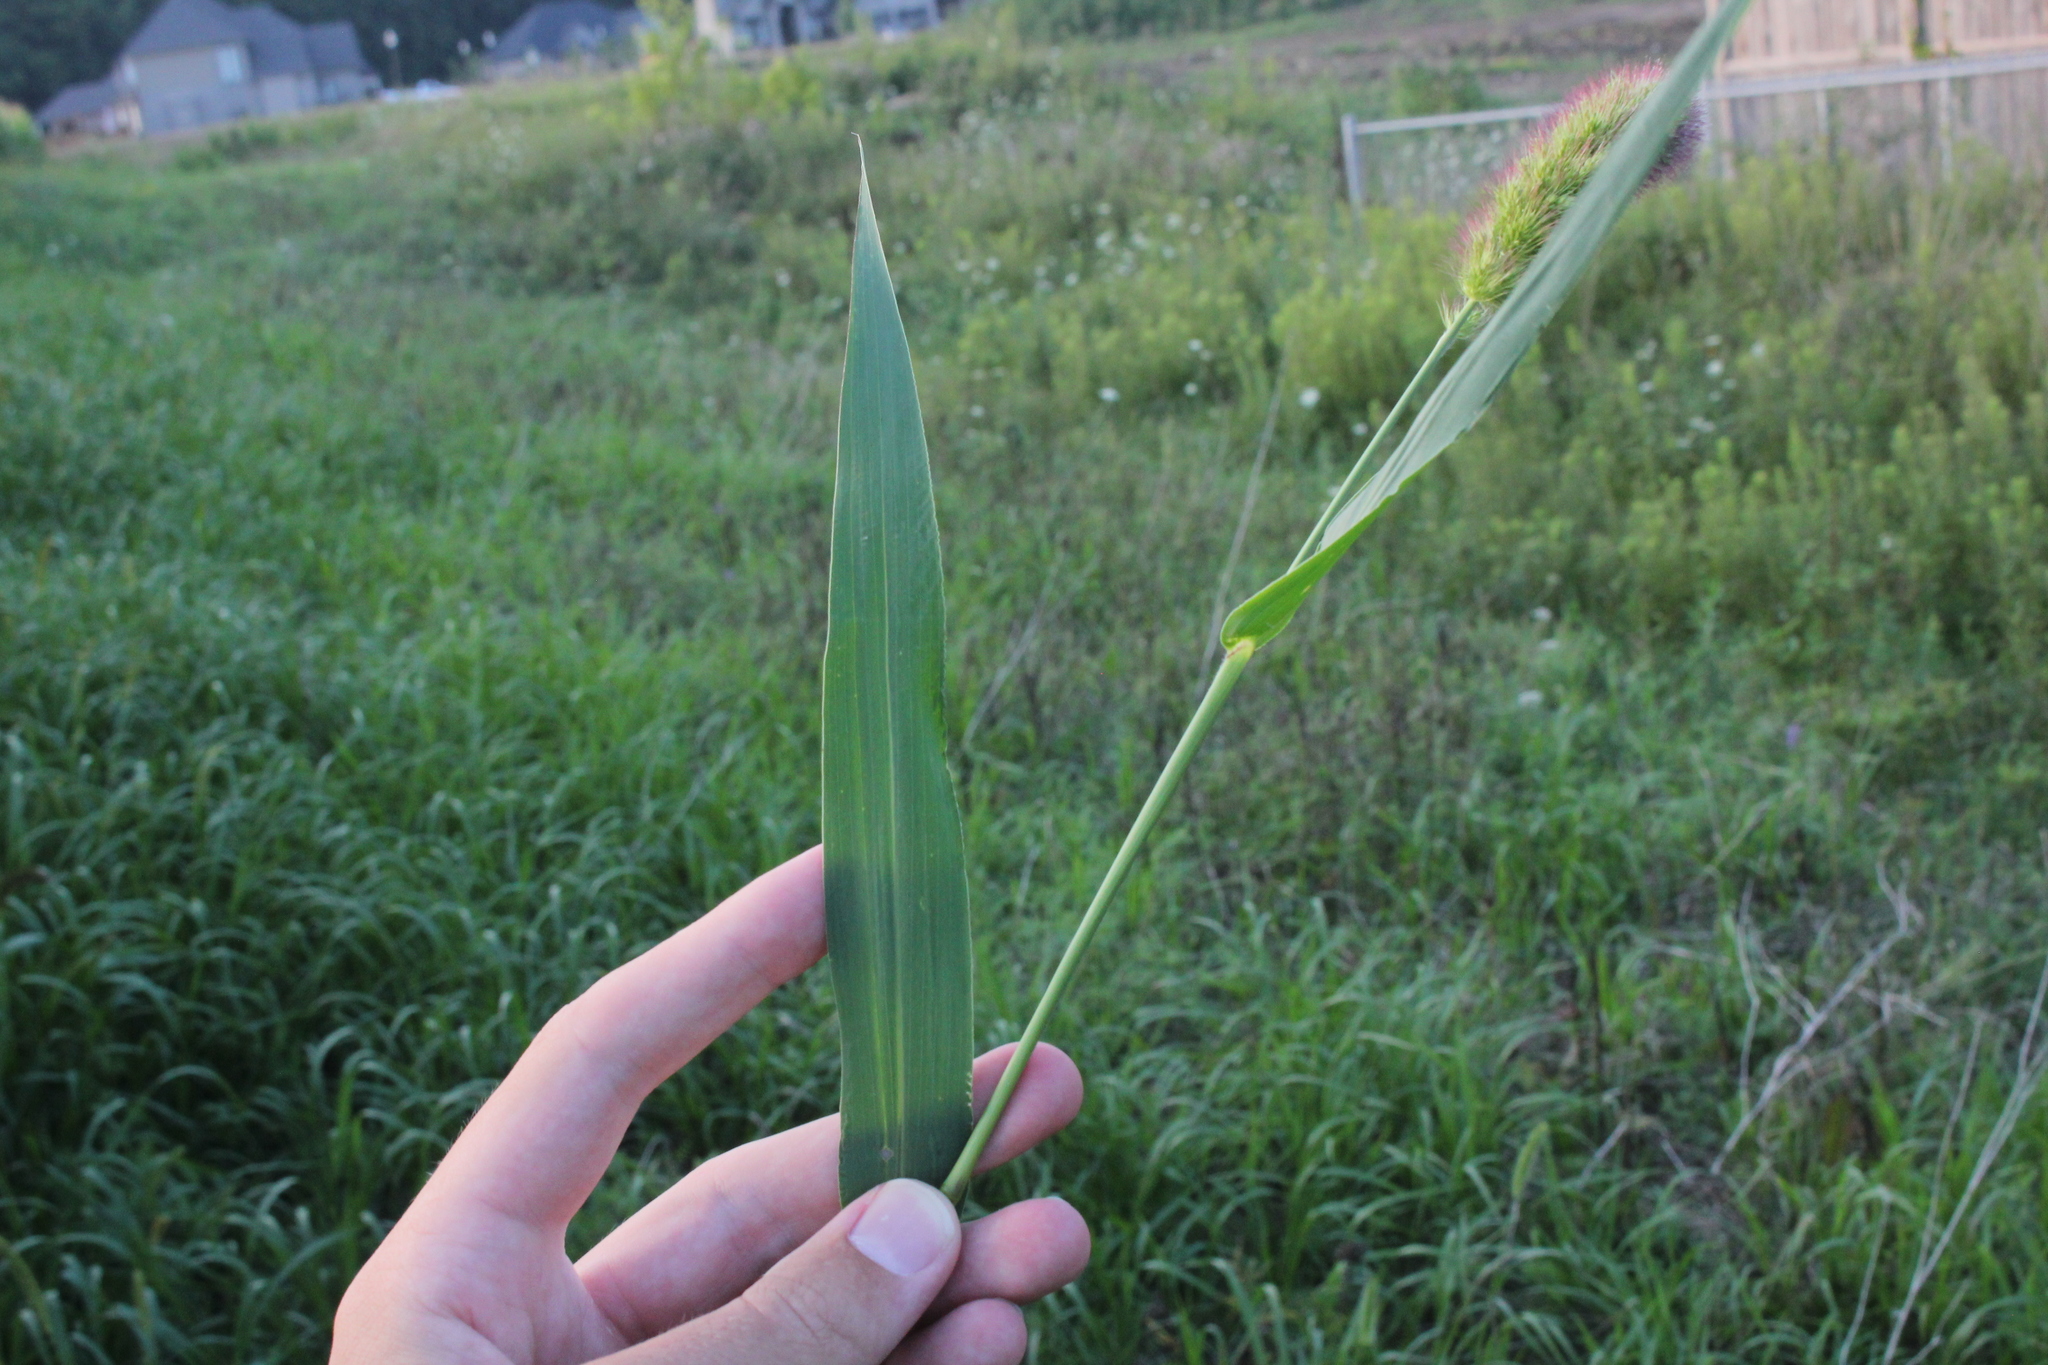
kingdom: Plantae
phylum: Tracheophyta
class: Liliopsida
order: Poales
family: Poaceae
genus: Setaria
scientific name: Setaria viridis
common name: Green bristlegrass
